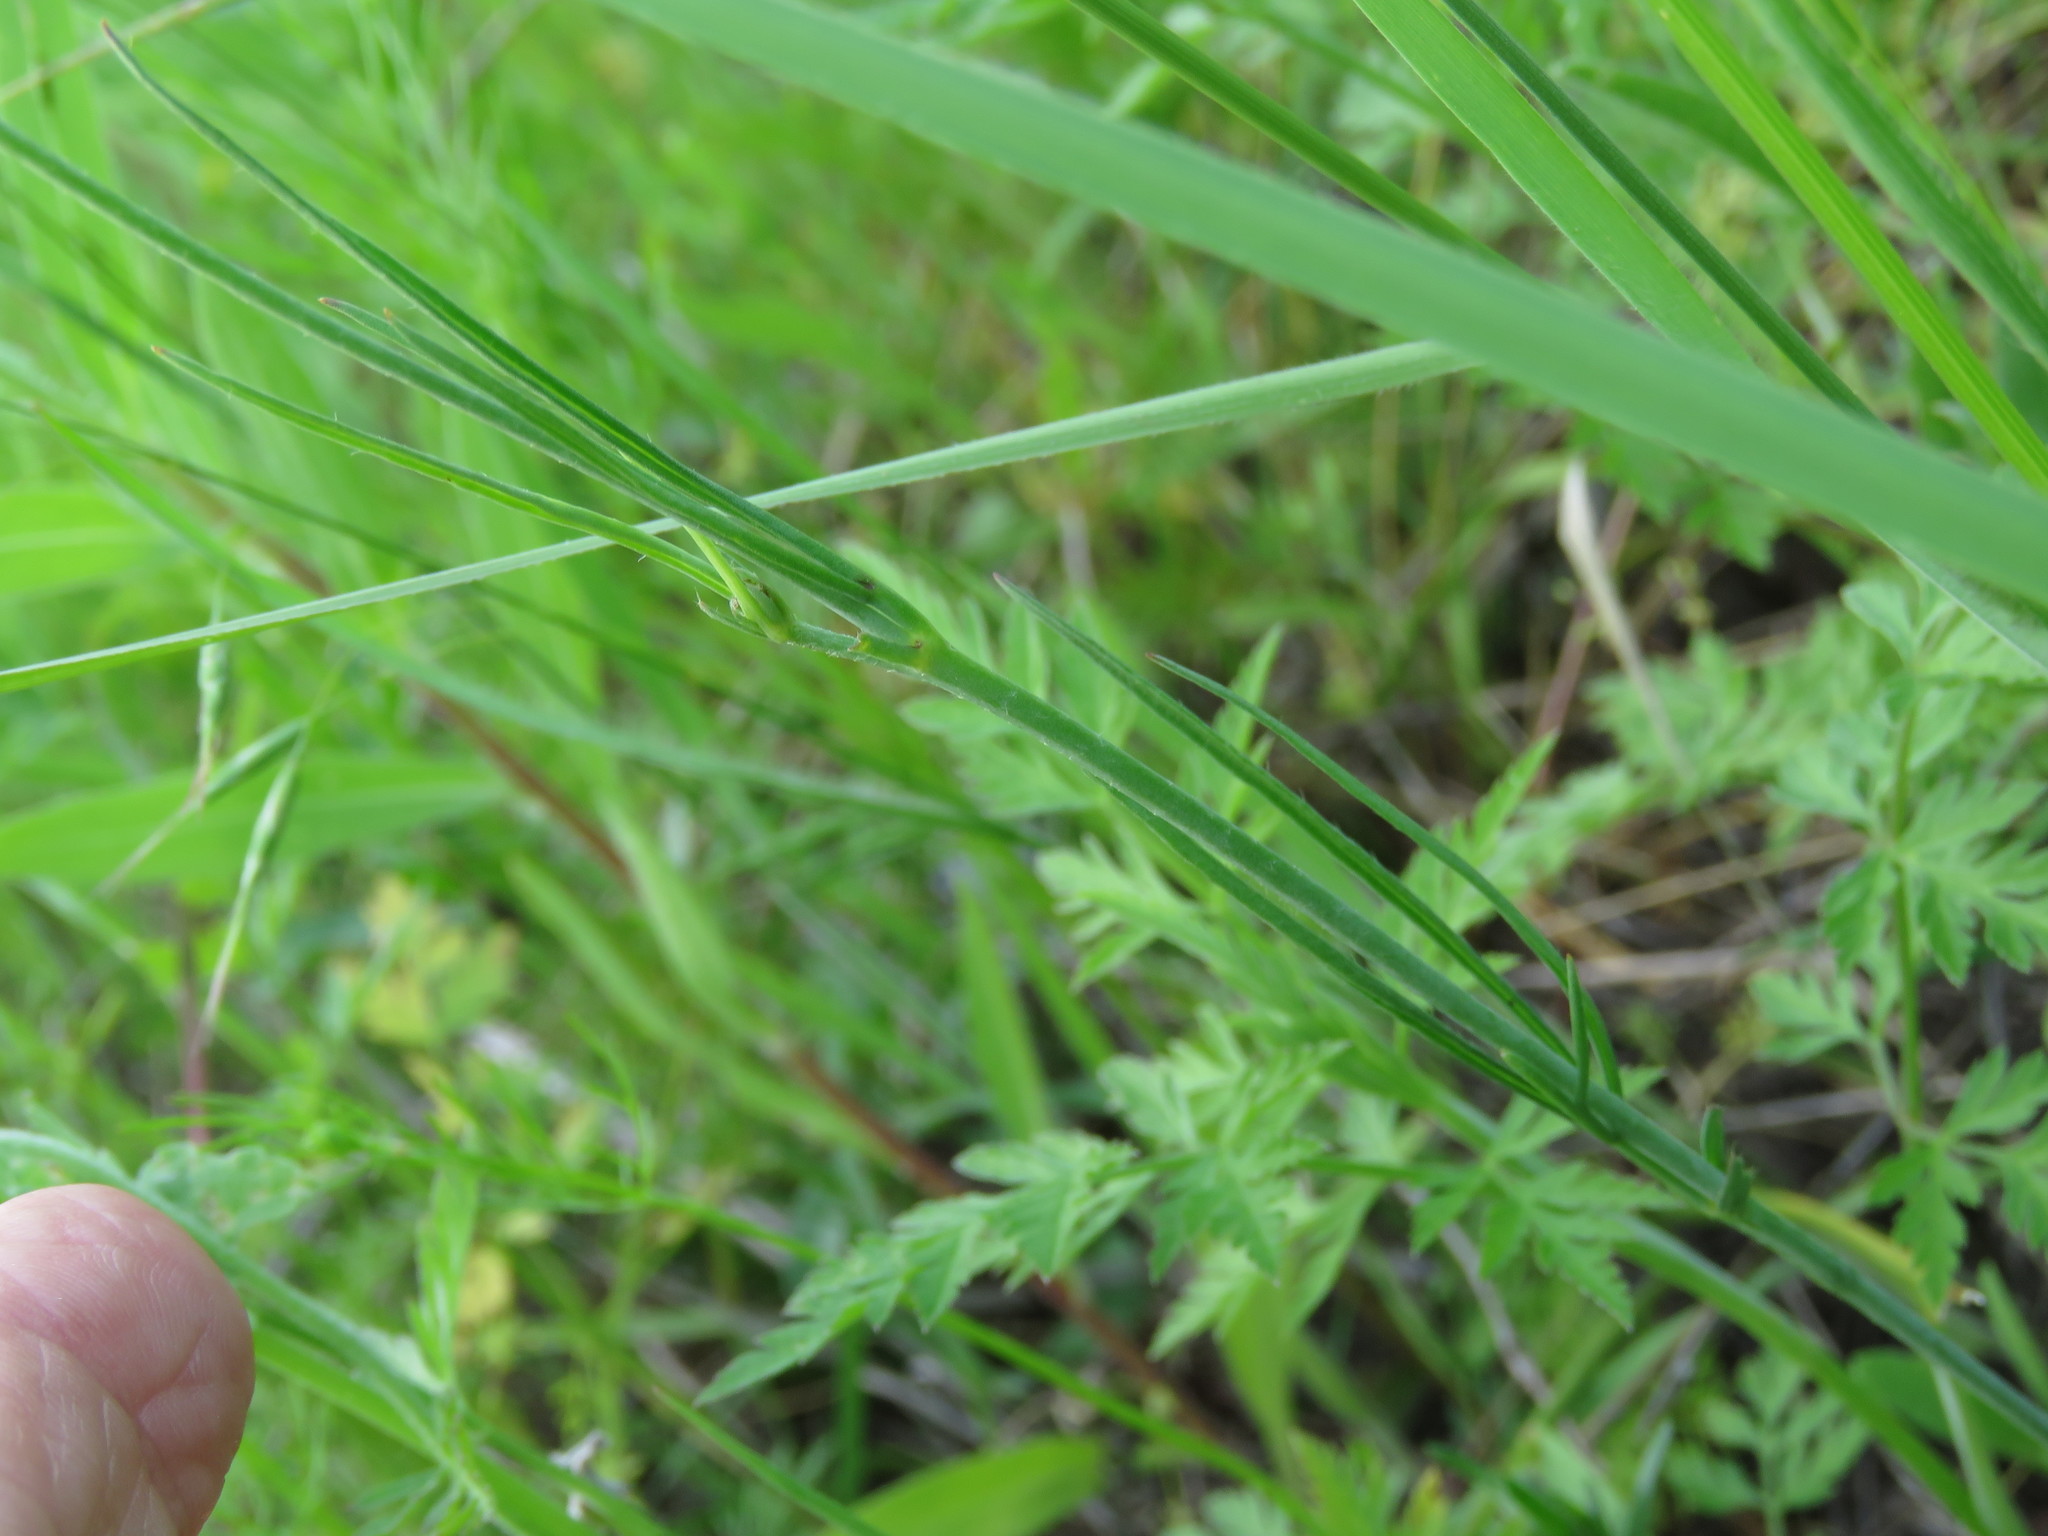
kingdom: Plantae
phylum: Tracheophyta
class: Magnoliopsida
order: Malvales
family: Malvaceae
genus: Callirhoe
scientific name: Callirhoe pedata
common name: Finger poppy-mallow
